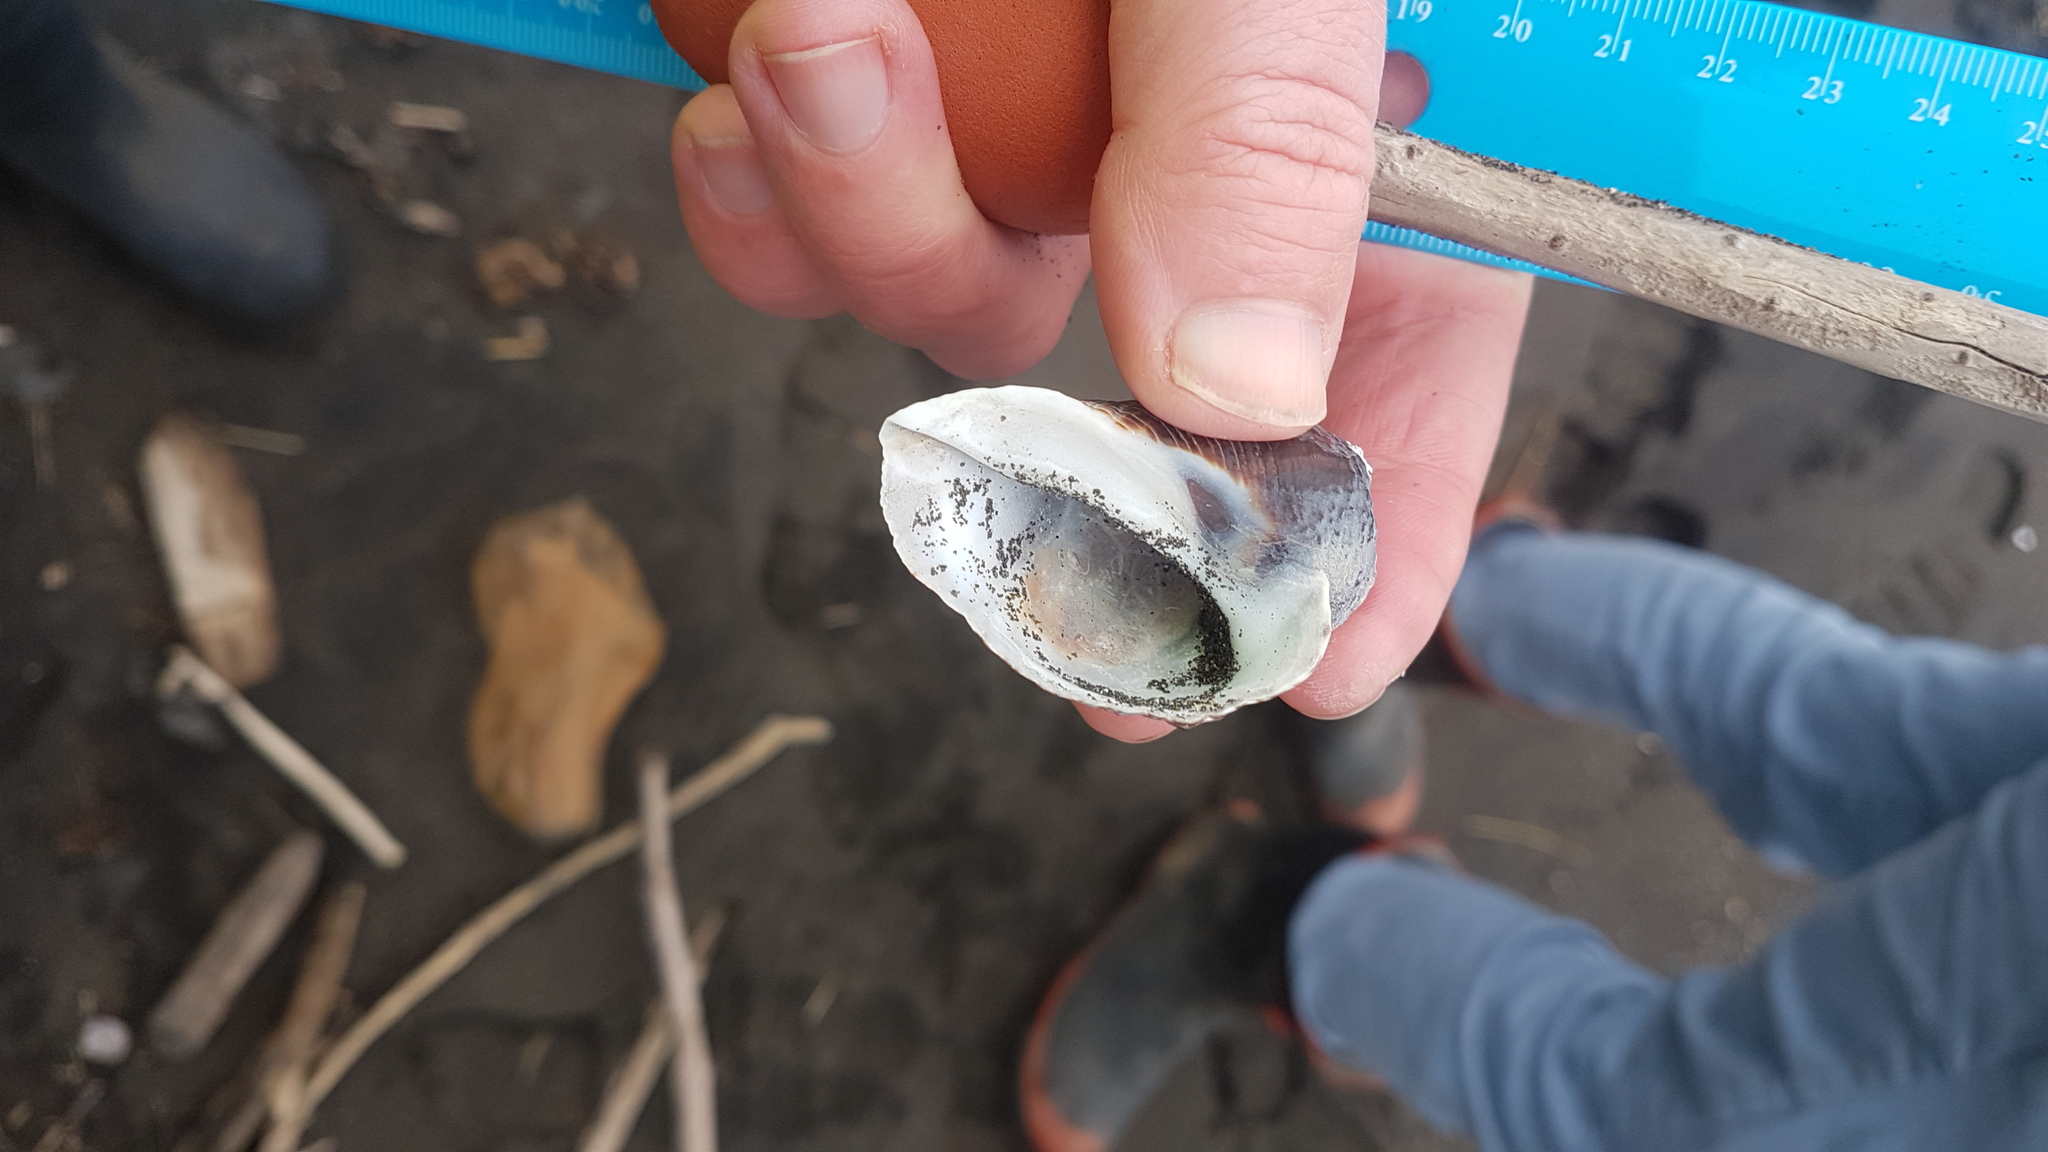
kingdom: Animalia
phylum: Mollusca
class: Gastropoda
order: Neogastropoda
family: Muricidae
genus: Haustrum
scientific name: Haustrum haustorium
